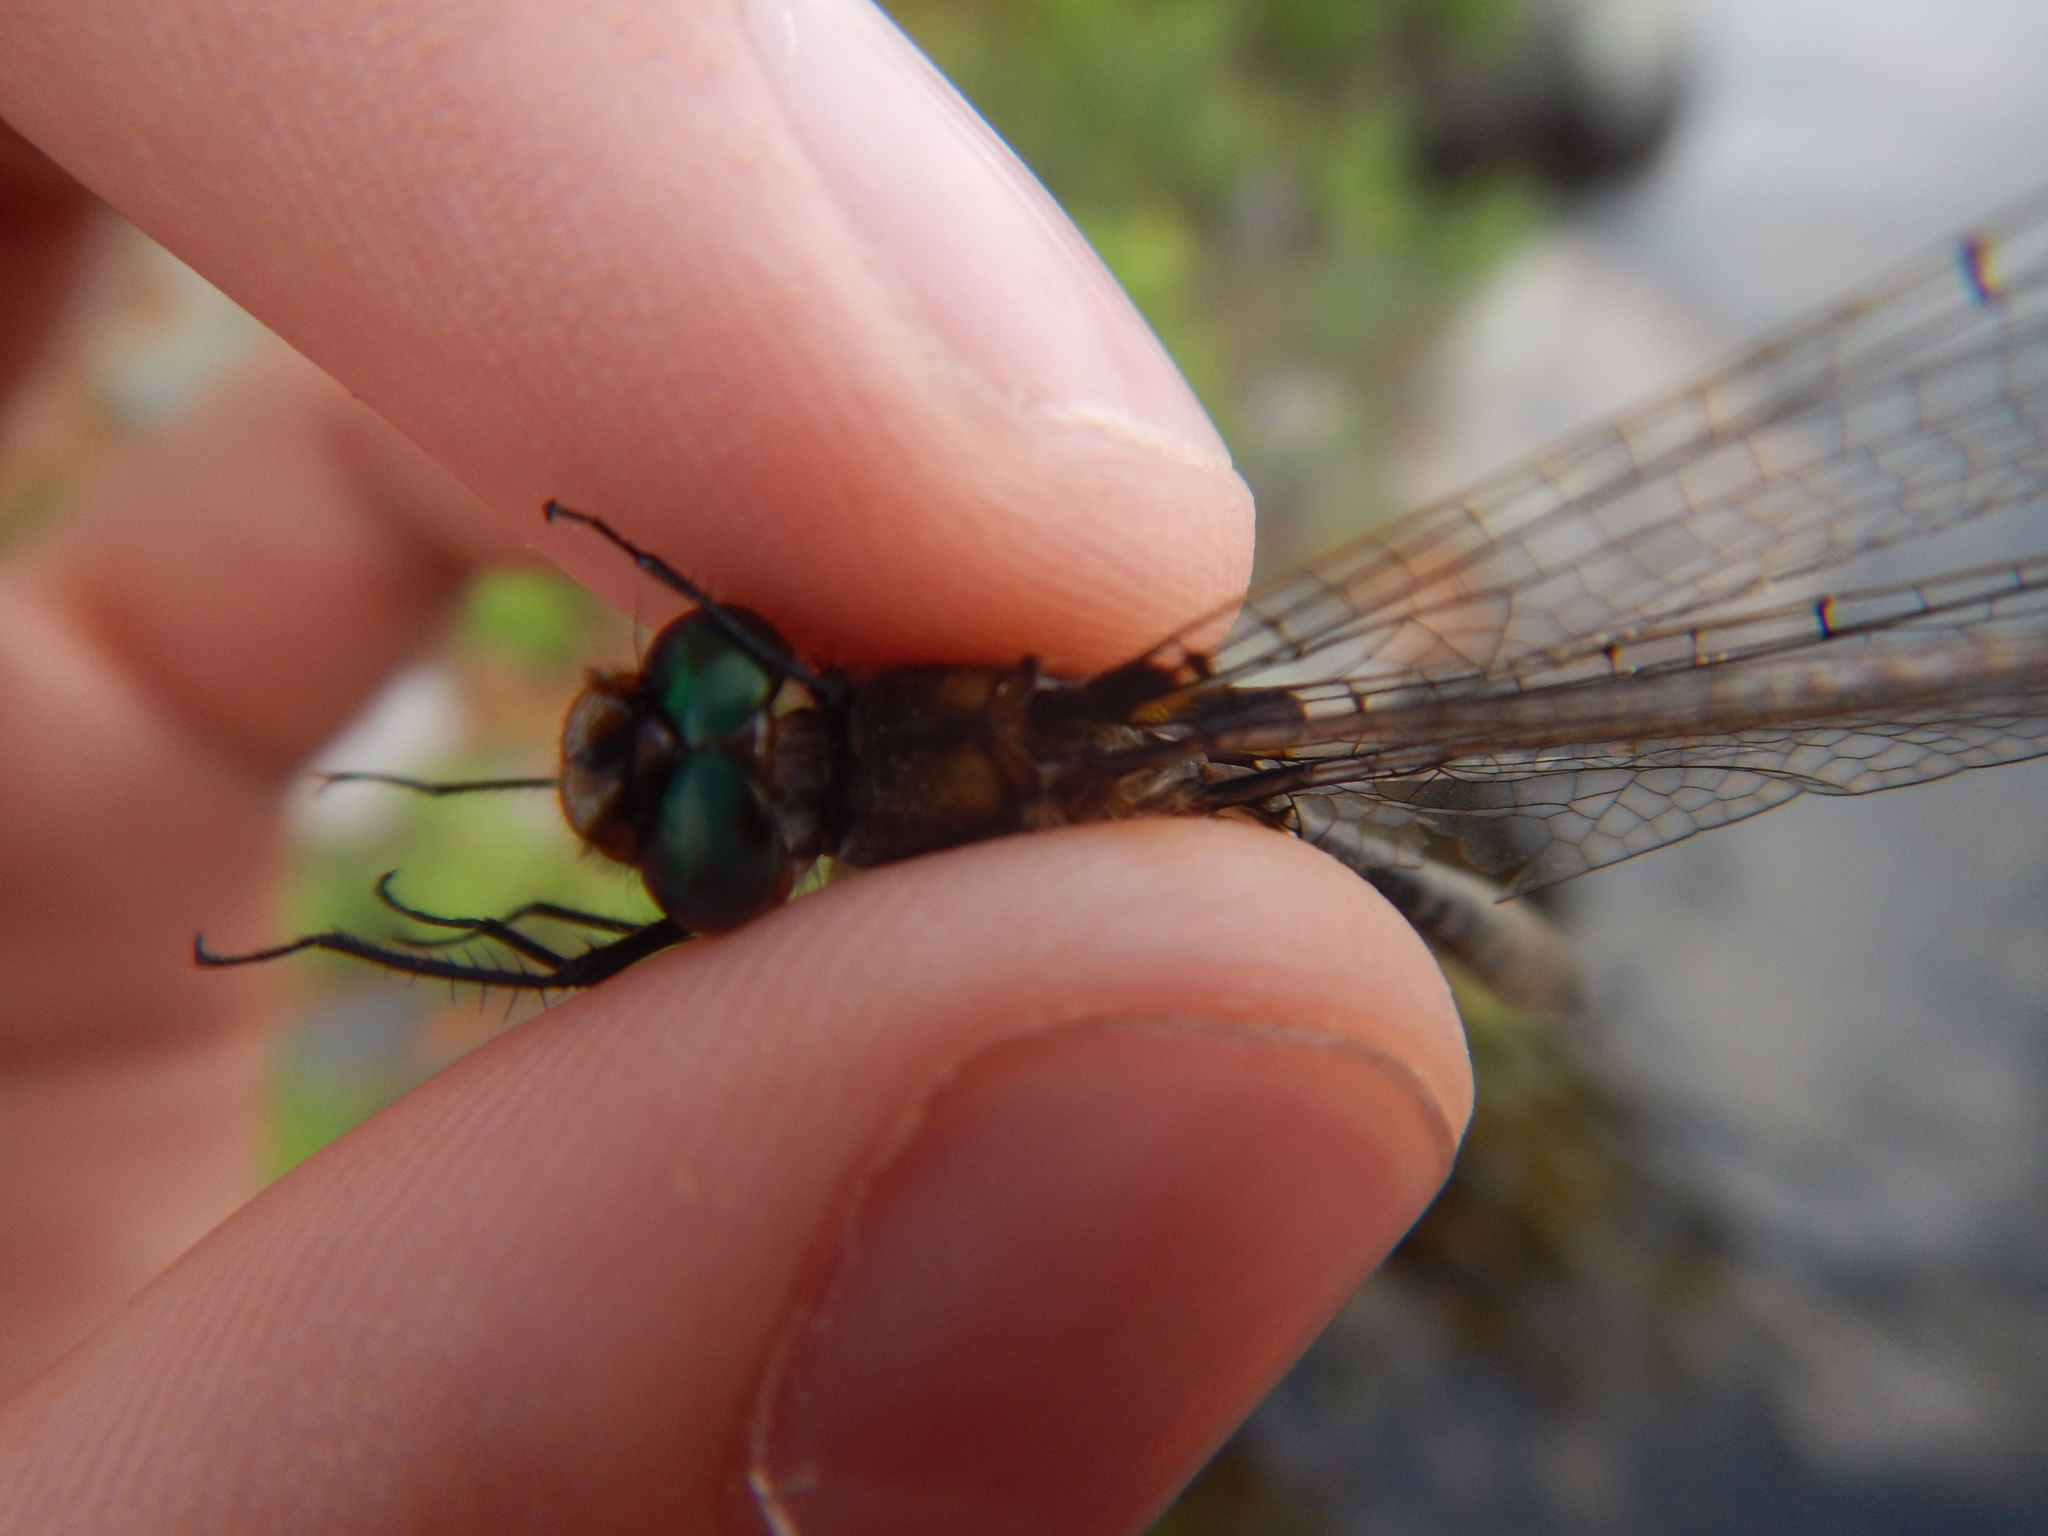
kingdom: Animalia
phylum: Arthropoda
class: Insecta
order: Odonata
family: Corduliidae
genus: Helocordulia
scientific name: Helocordulia uhleri
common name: Uhler's sundragon
